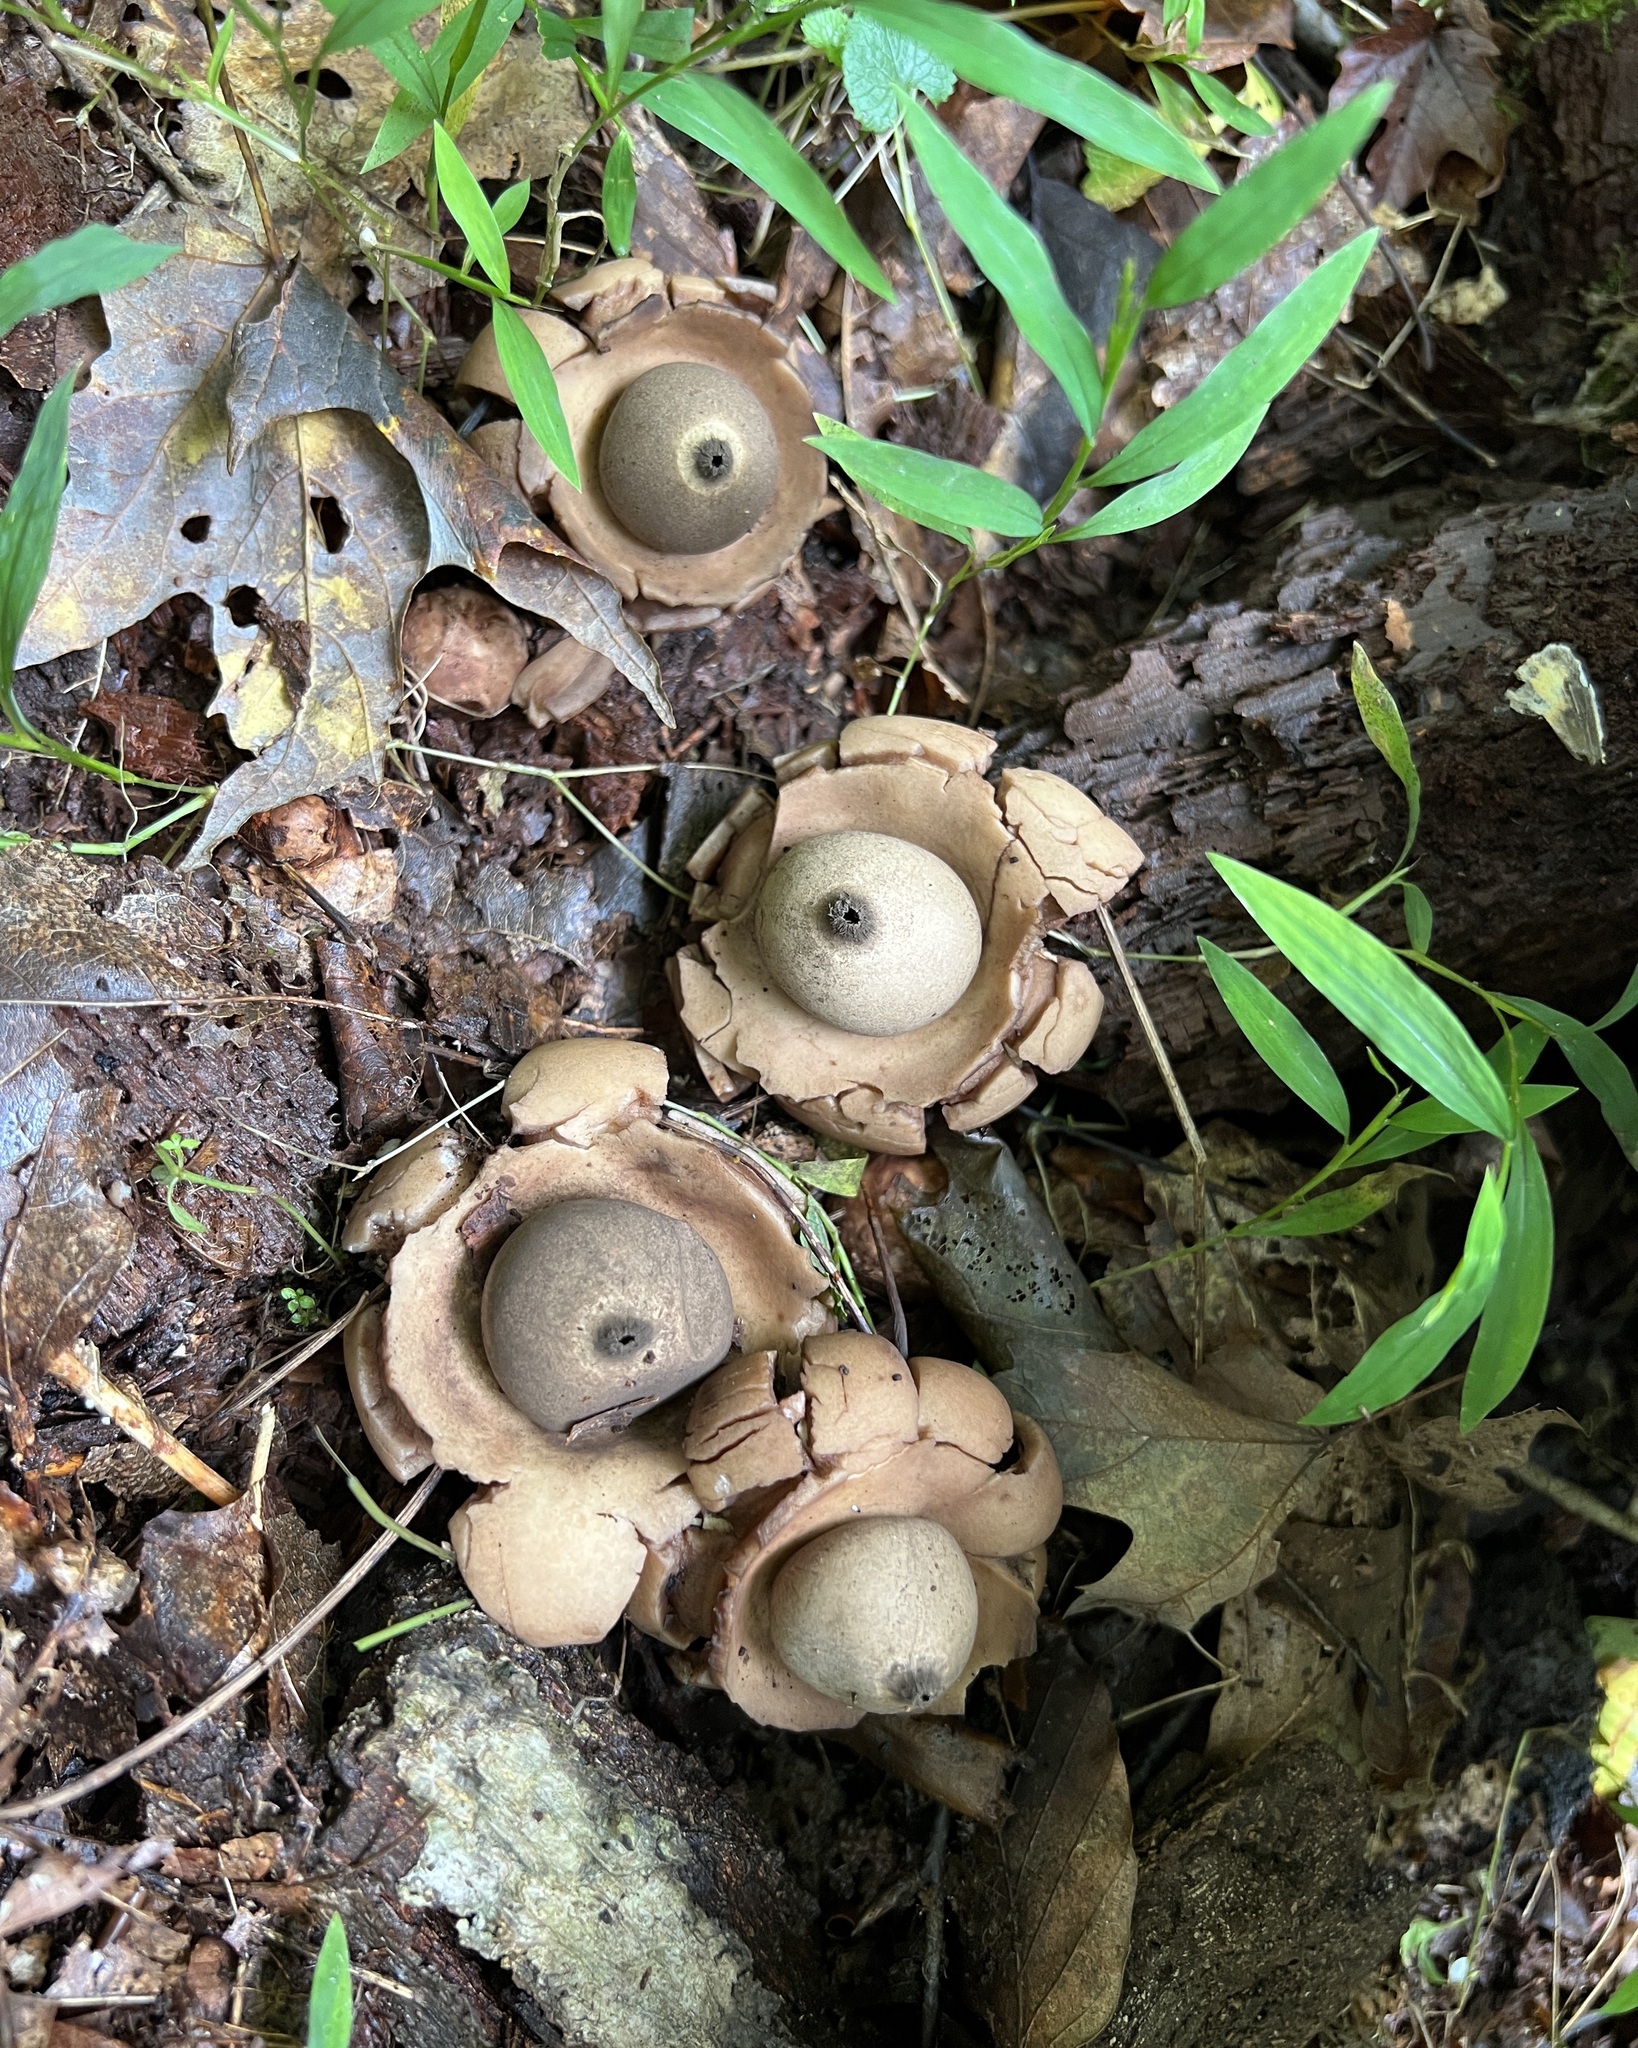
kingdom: Fungi
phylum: Basidiomycota
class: Agaricomycetes
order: Geastrales
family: Geastraceae
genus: Geastrum
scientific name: Geastrum triplex
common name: Collared earthstar
